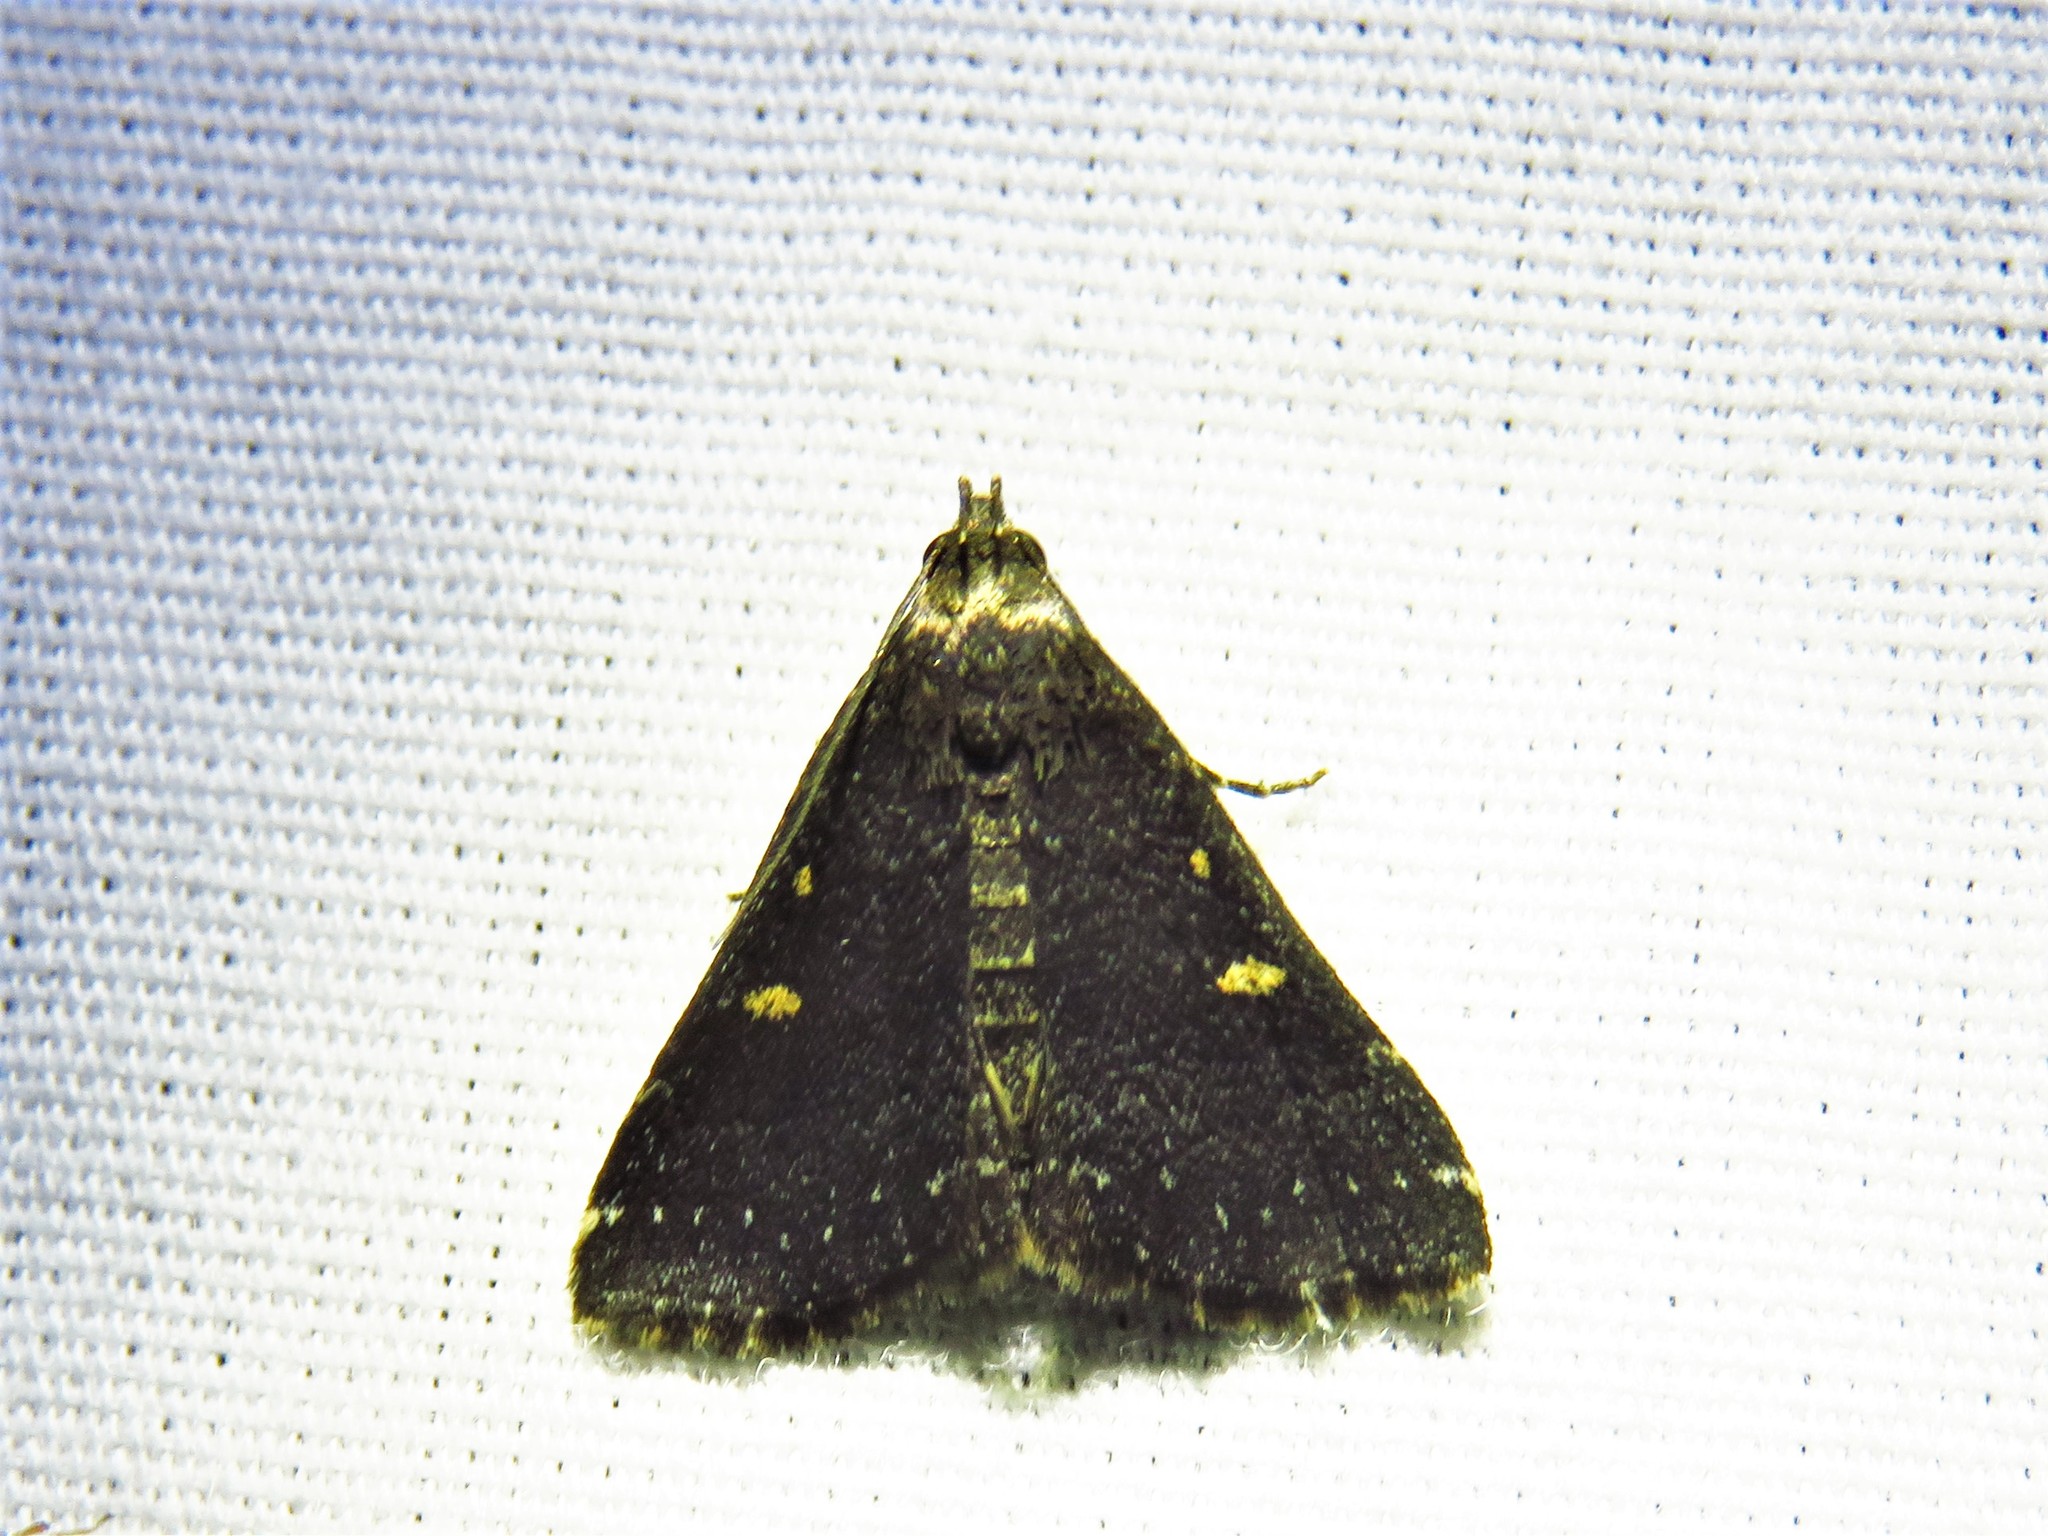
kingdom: Animalia
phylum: Arthropoda
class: Insecta
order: Lepidoptera
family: Erebidae
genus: Tetanolita
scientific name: Tetanolita mynesalis
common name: Smoky tetanolita moth
